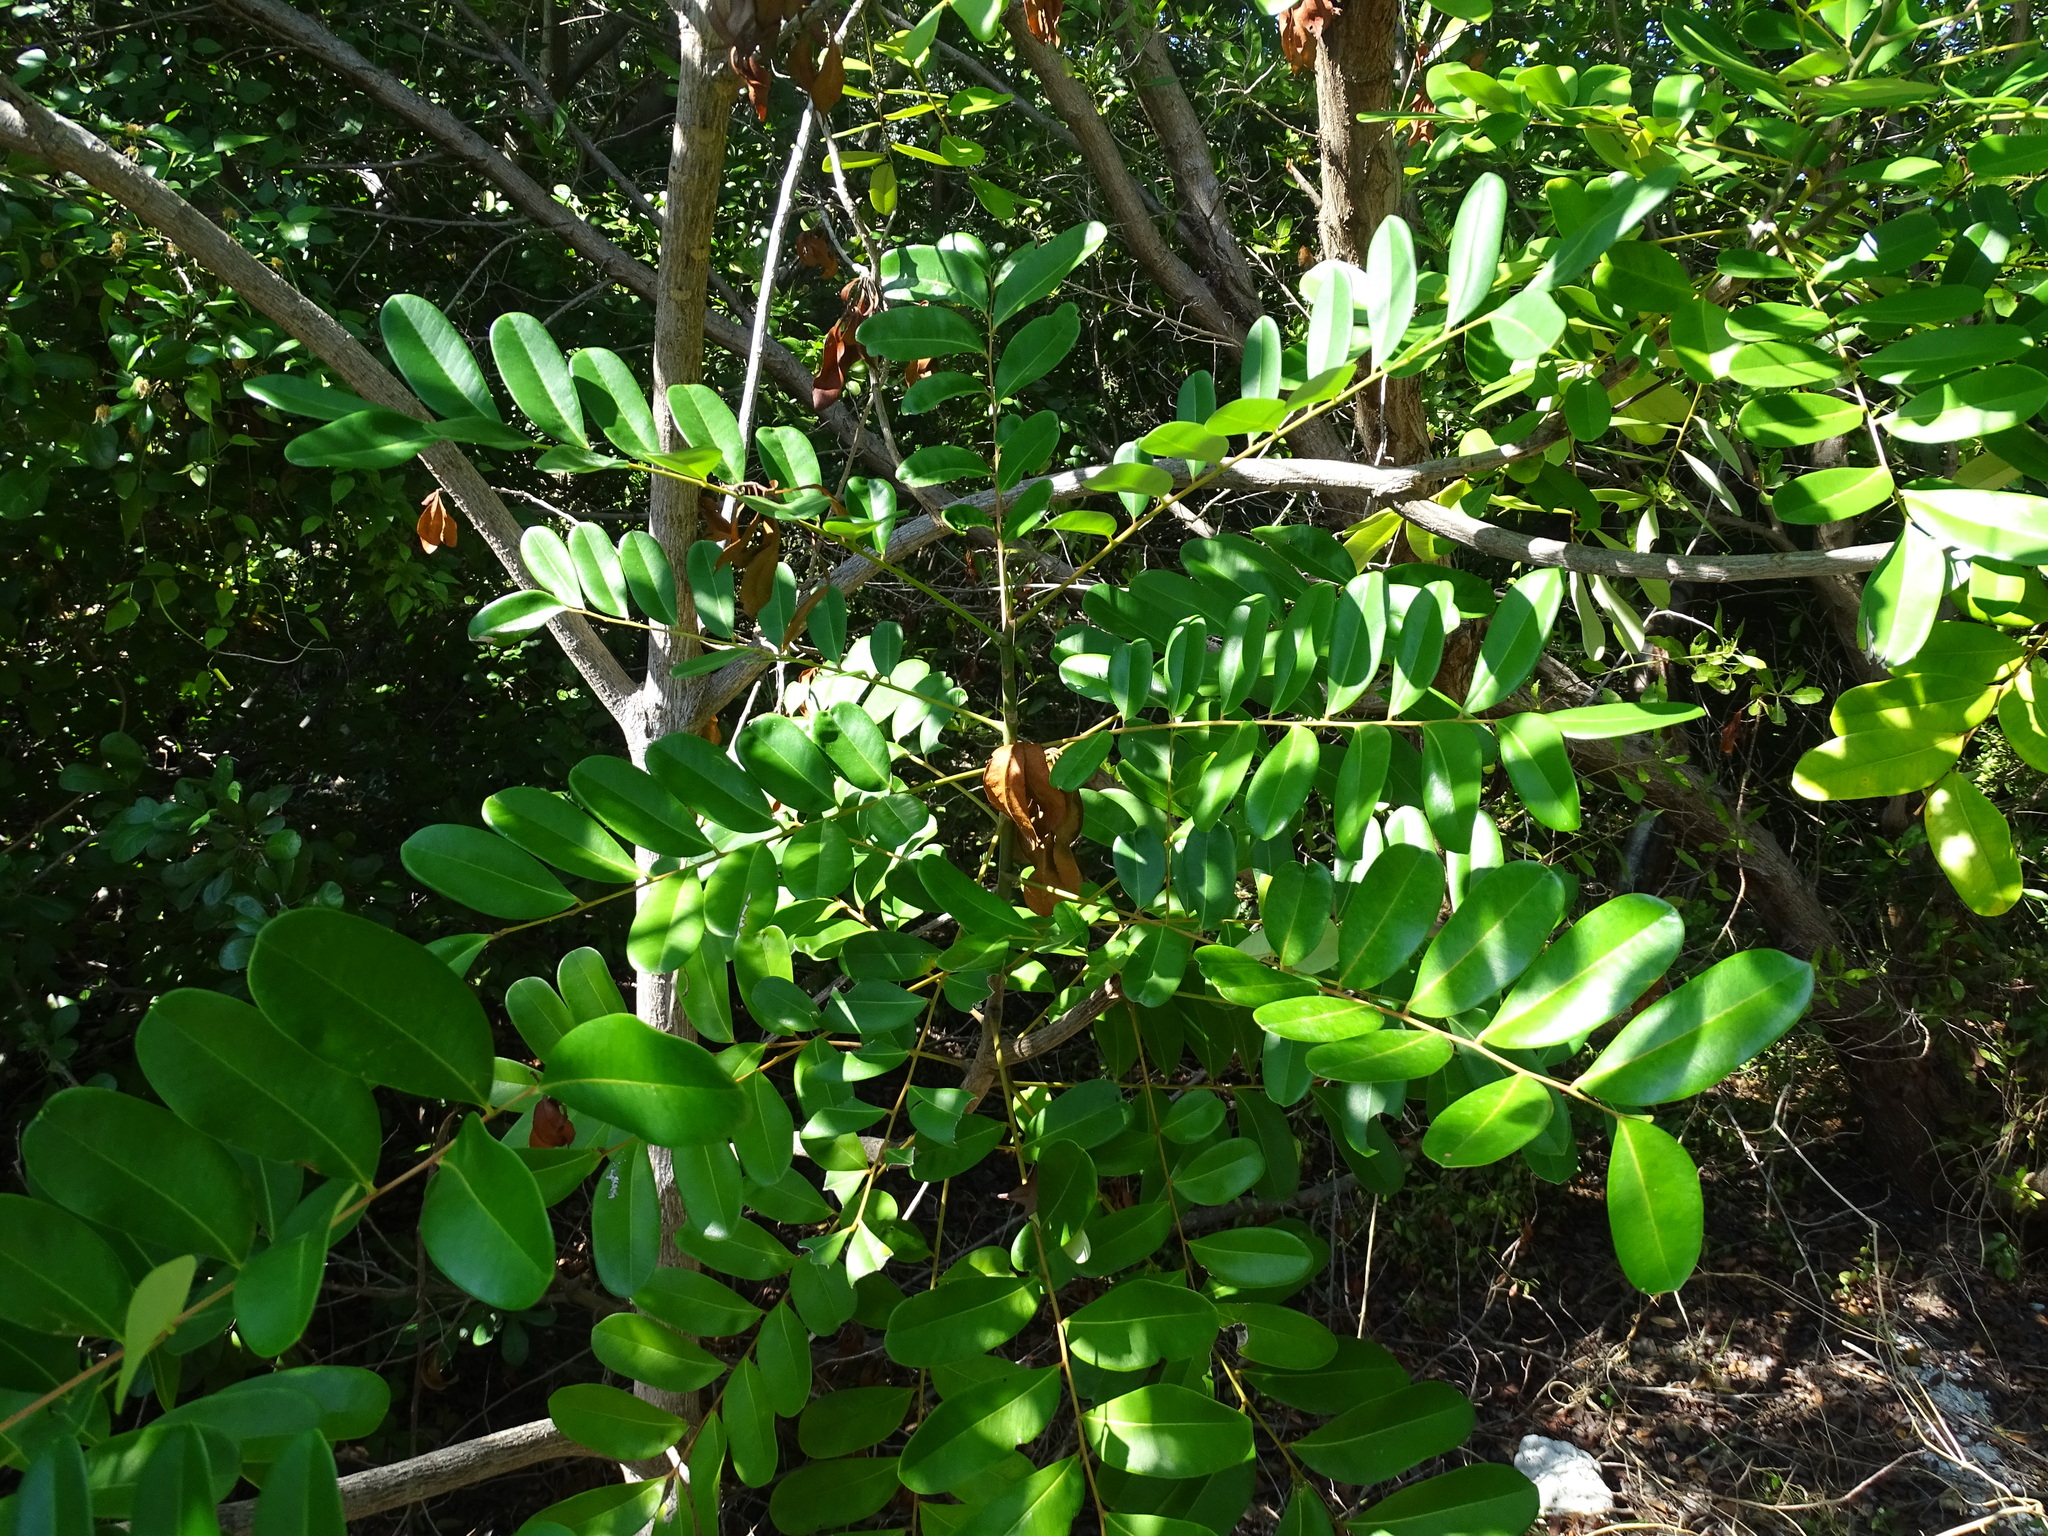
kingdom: Plantae
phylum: Tracheophyta
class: Magnoliopsida
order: Sapindales
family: Simaroubaceae
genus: Simarouba
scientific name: Simarouba glauca
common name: Dysentery-bark
